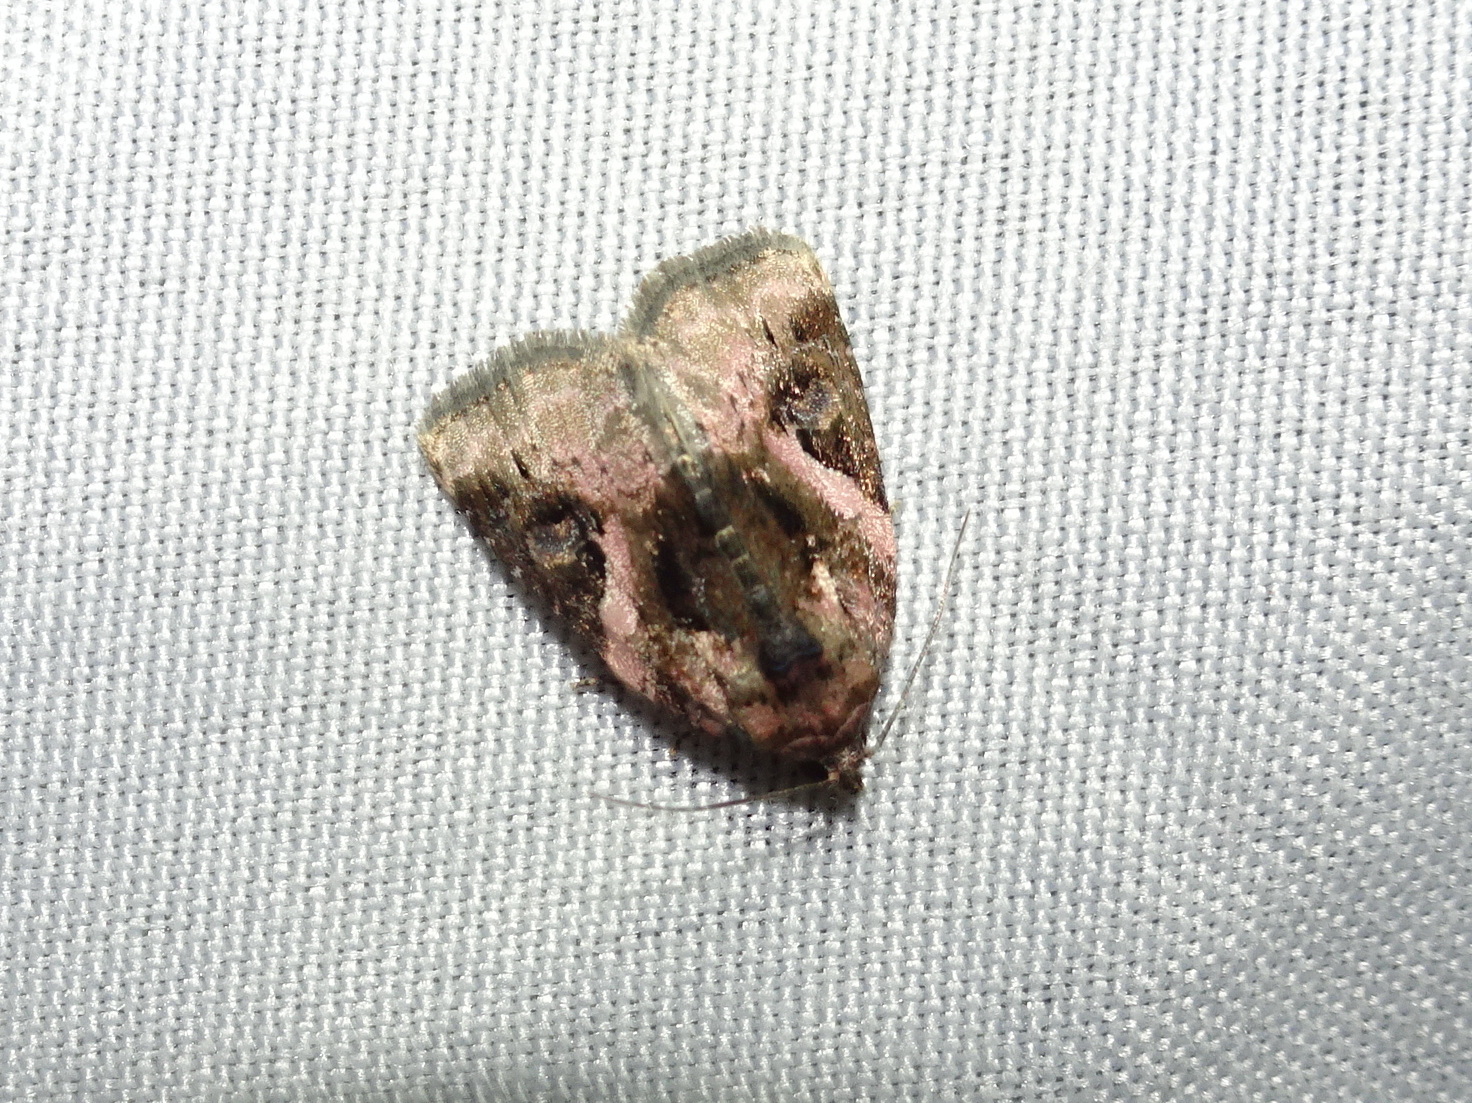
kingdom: Animalia
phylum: Arthropoda
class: Insecta
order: Lepidoptera
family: Noctuidae
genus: Pseudeustrotia
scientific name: Pseudeustrotia carneola
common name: Pink-barred lithacodia moth
